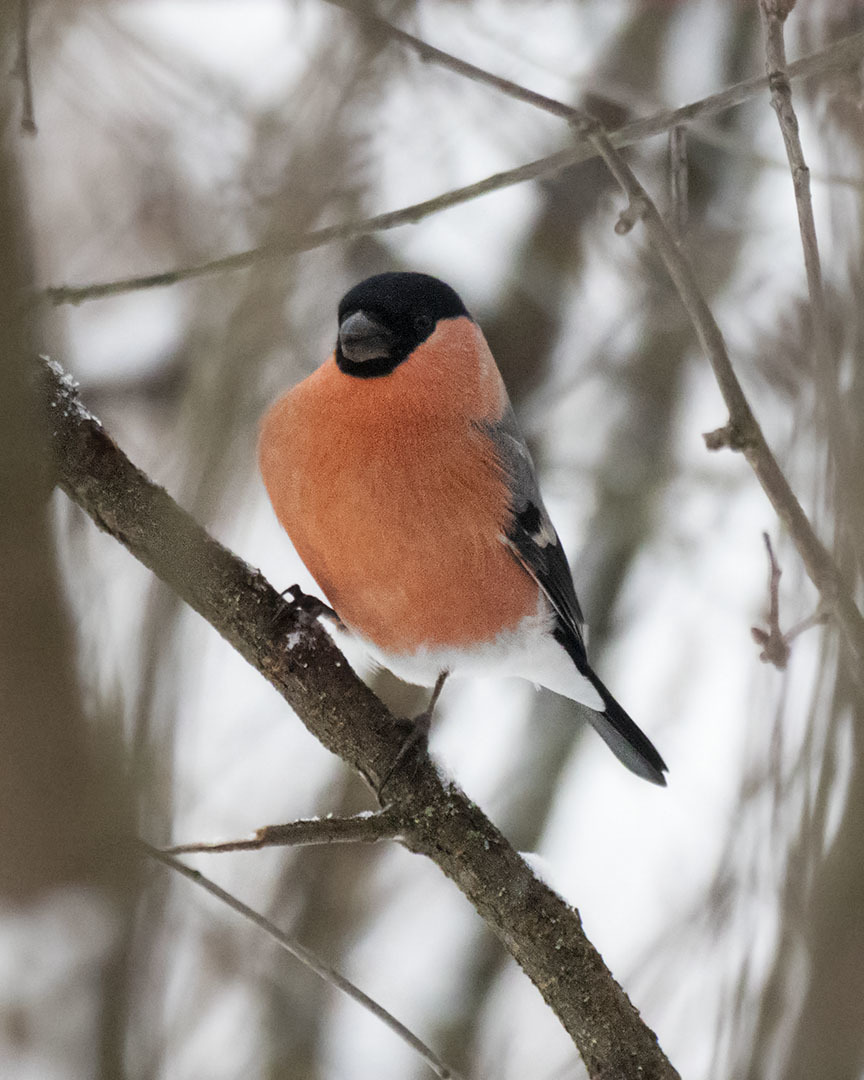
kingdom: Animalia
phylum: Chordata
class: Aves
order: Passeriformes
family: Fringillidae
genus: Pyrrhula
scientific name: Pyrrhula pyrrhula
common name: Eurasian bullfinch
